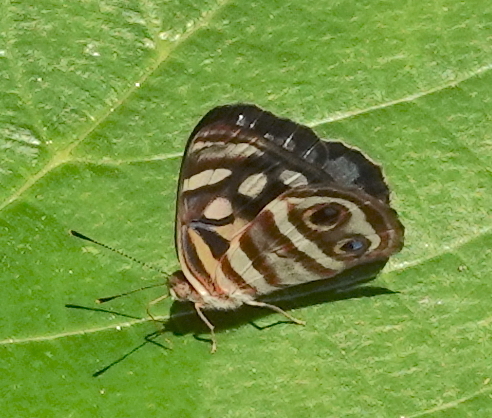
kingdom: Animalia
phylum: Arthropoda
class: Insecta
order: Lepidoptera
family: Nymphalidae
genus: Dynamine
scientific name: Dynamine mylitta
